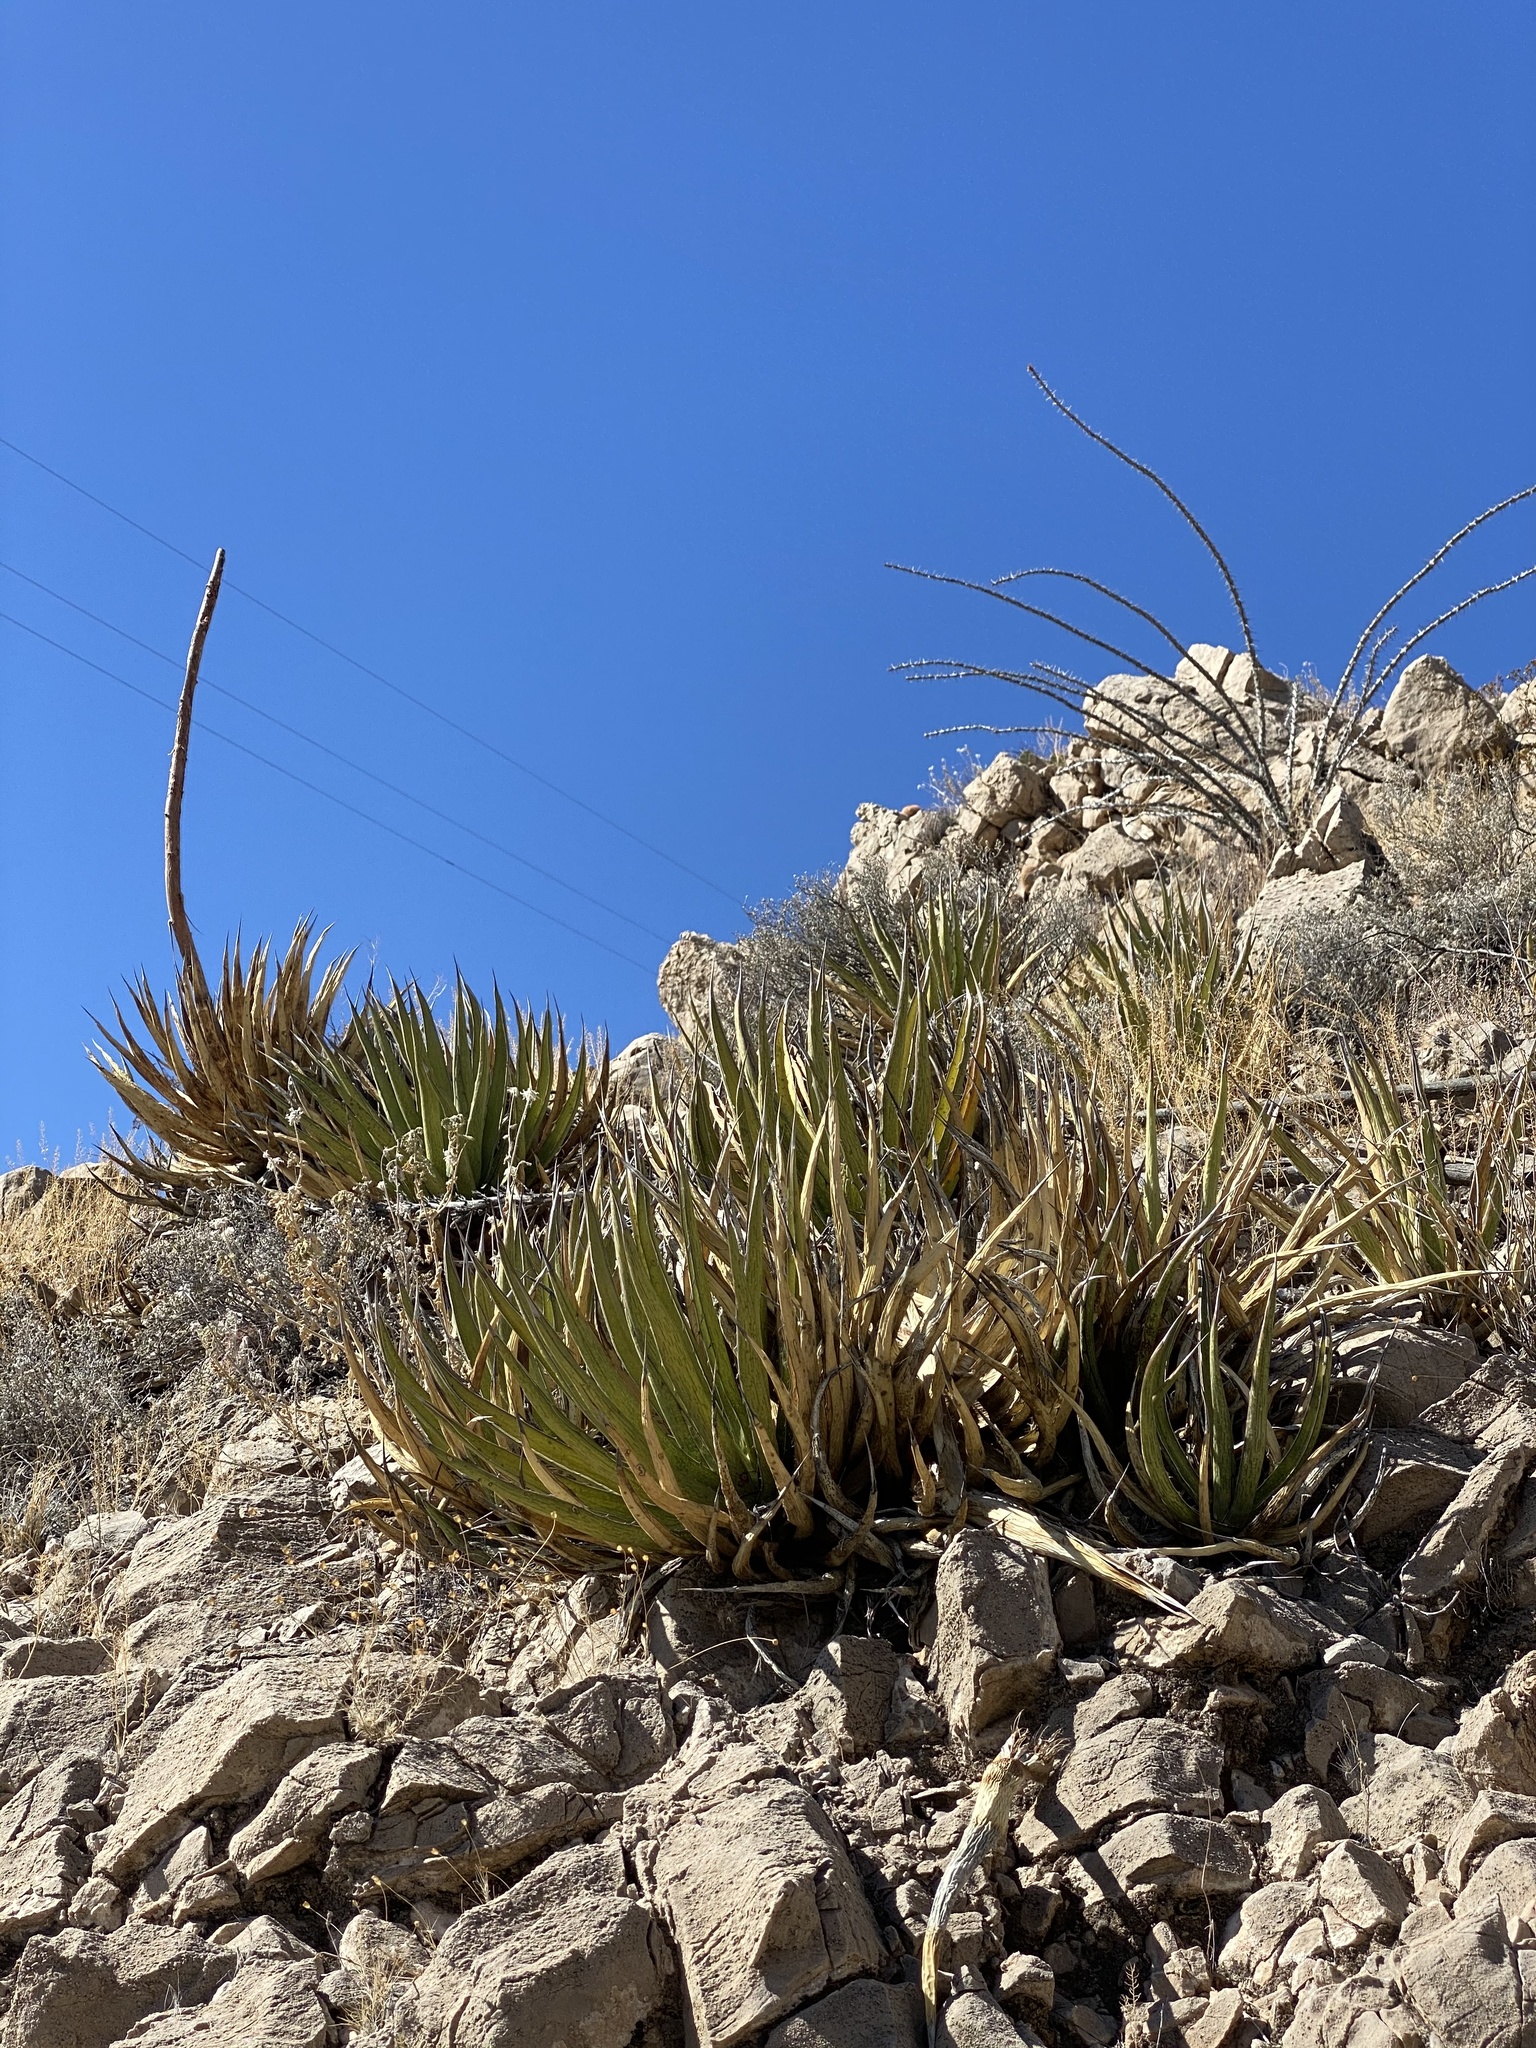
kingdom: Plantae
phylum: Tracheophyta
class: Liliopsida
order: Asparagales
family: Asparagaceae
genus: Agave
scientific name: Agave lechuguilla
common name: Lecheguilla agave
